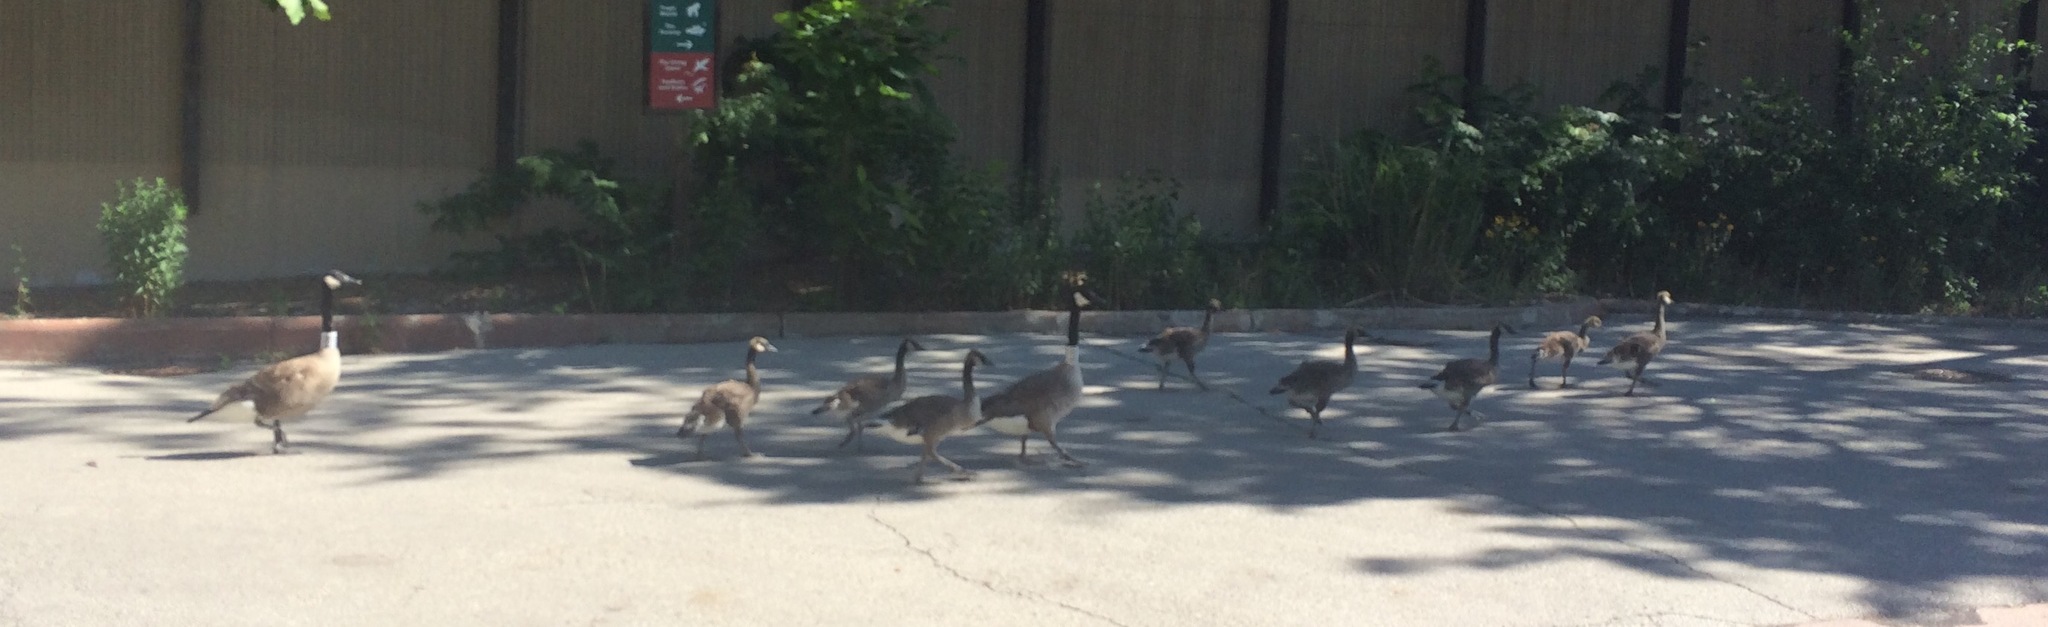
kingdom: Animalia
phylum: Chordata
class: Aves
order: Anseriformes
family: Anatidae
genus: Branta
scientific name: Branta canadensis
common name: Canada goose
